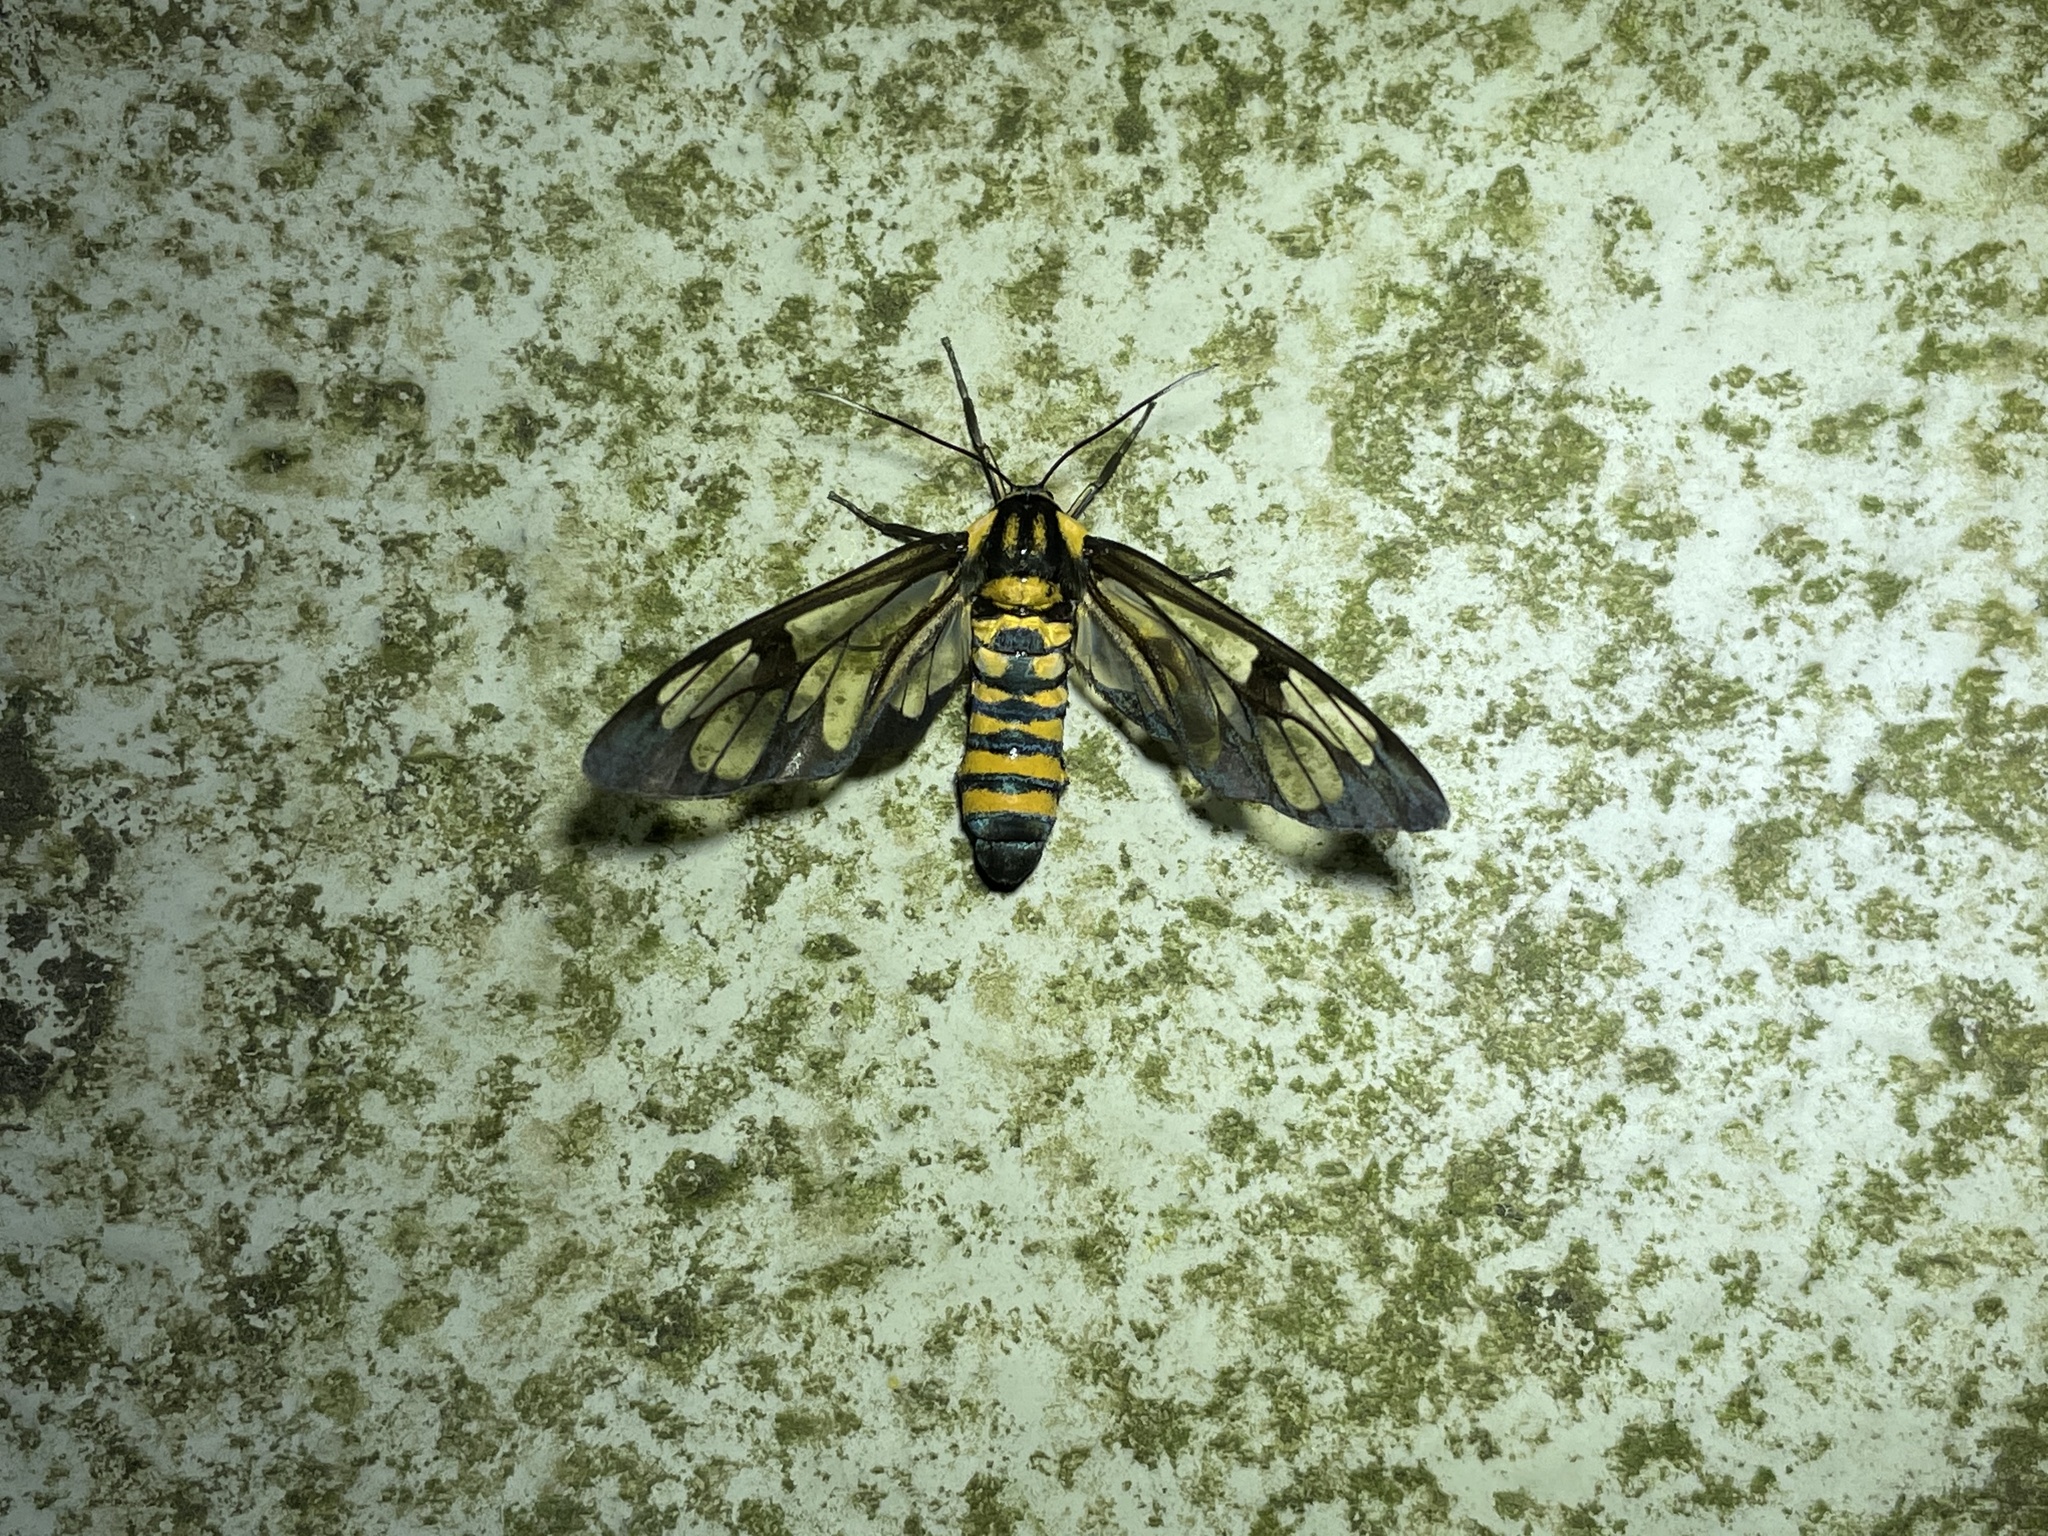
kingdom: Animalia
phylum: Arthropoda
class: Insecta
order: Lepidoptera
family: Erebidae
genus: Caeneressa
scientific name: Caeneressa diaphana
